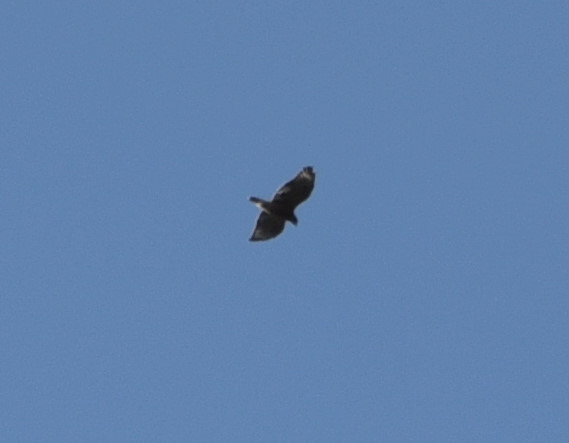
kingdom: Animalia
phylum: Chordata
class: Aves
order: Accipitriformes
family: Accipitridae
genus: Buteo
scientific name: Buteo lineatus
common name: Red-shouldered hawk
